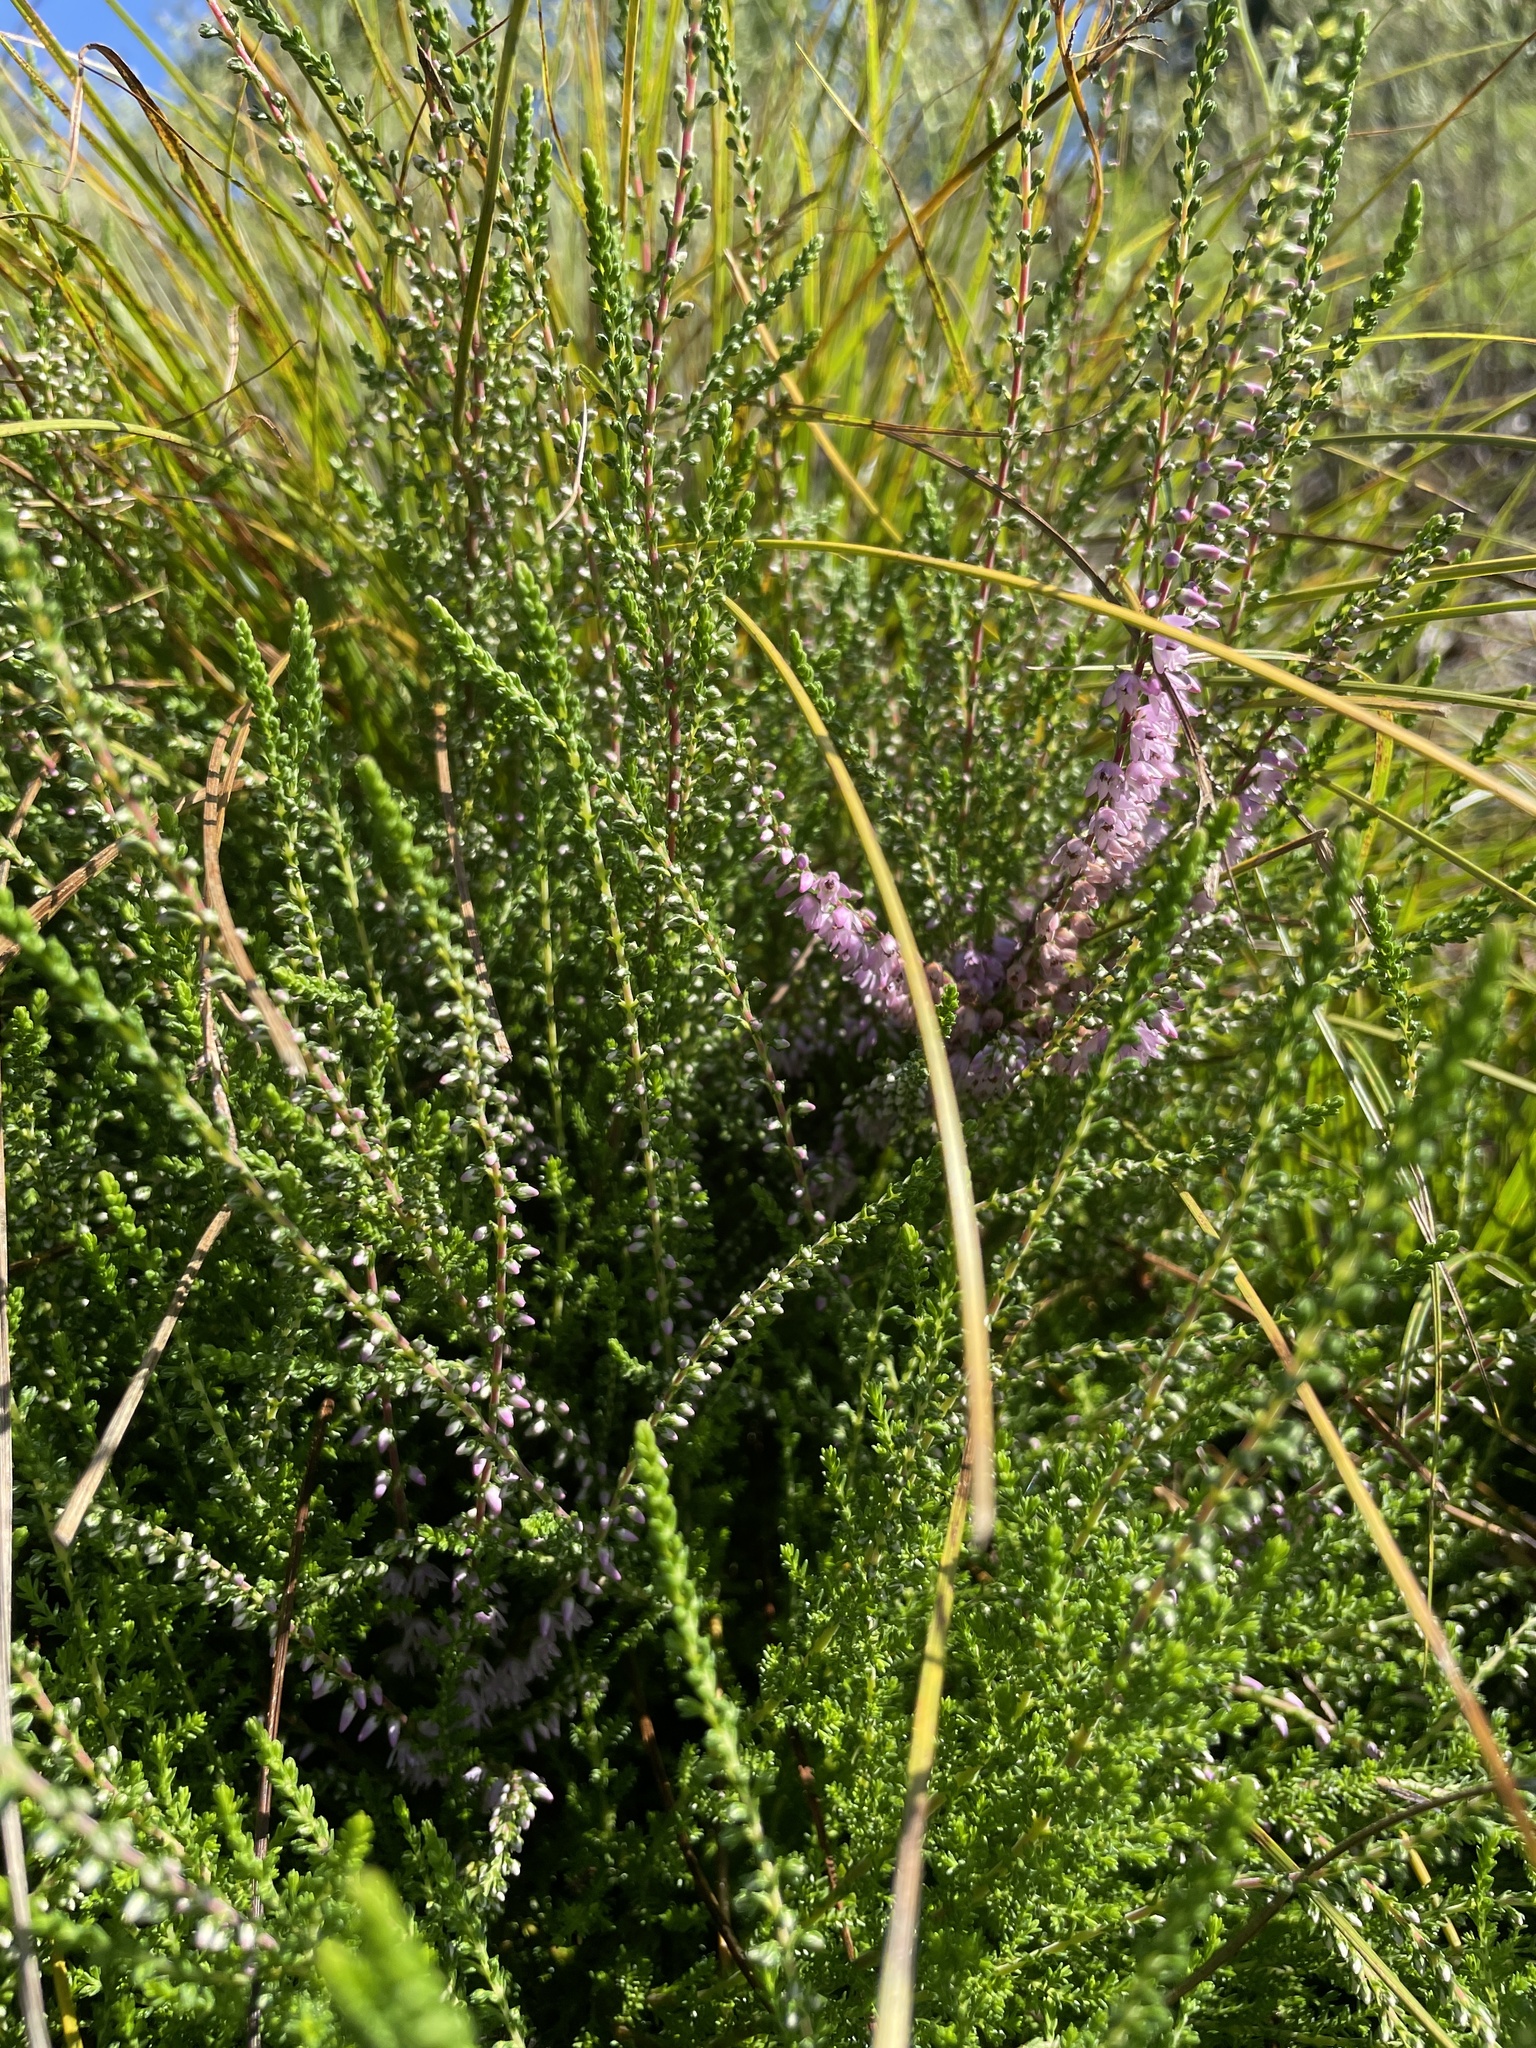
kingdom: Plantae
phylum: Tracheophyta
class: Magnoliopsida
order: Ericales
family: Ericaceae
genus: Calluna
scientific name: Calluna vulgaris
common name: Heather
